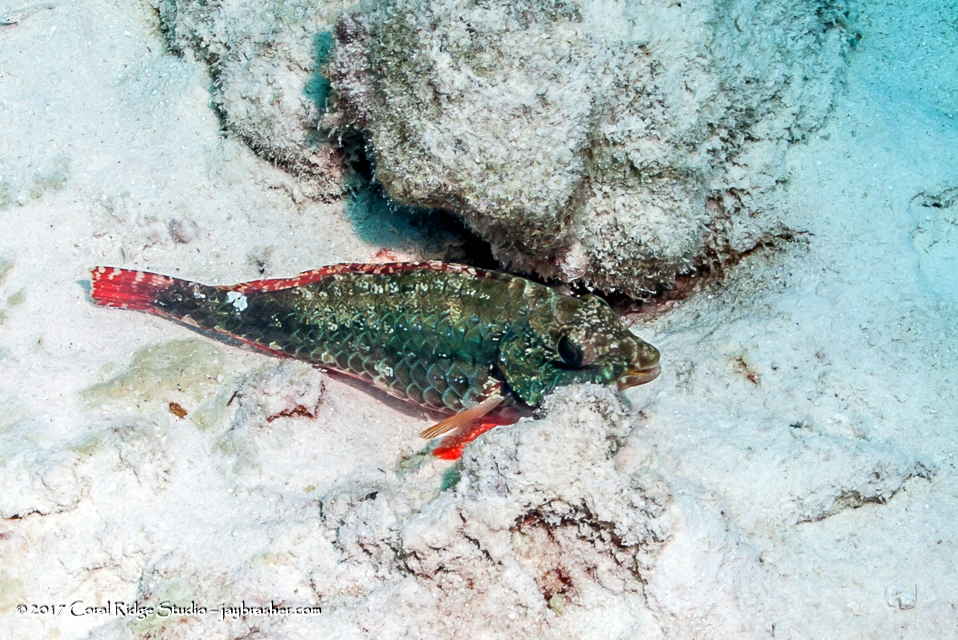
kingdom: Animalia
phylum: Chordata
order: Perciformes
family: Scaridae
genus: Sparisoma
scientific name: Sparisoma aurofrenatum
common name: Redband parrotfish
